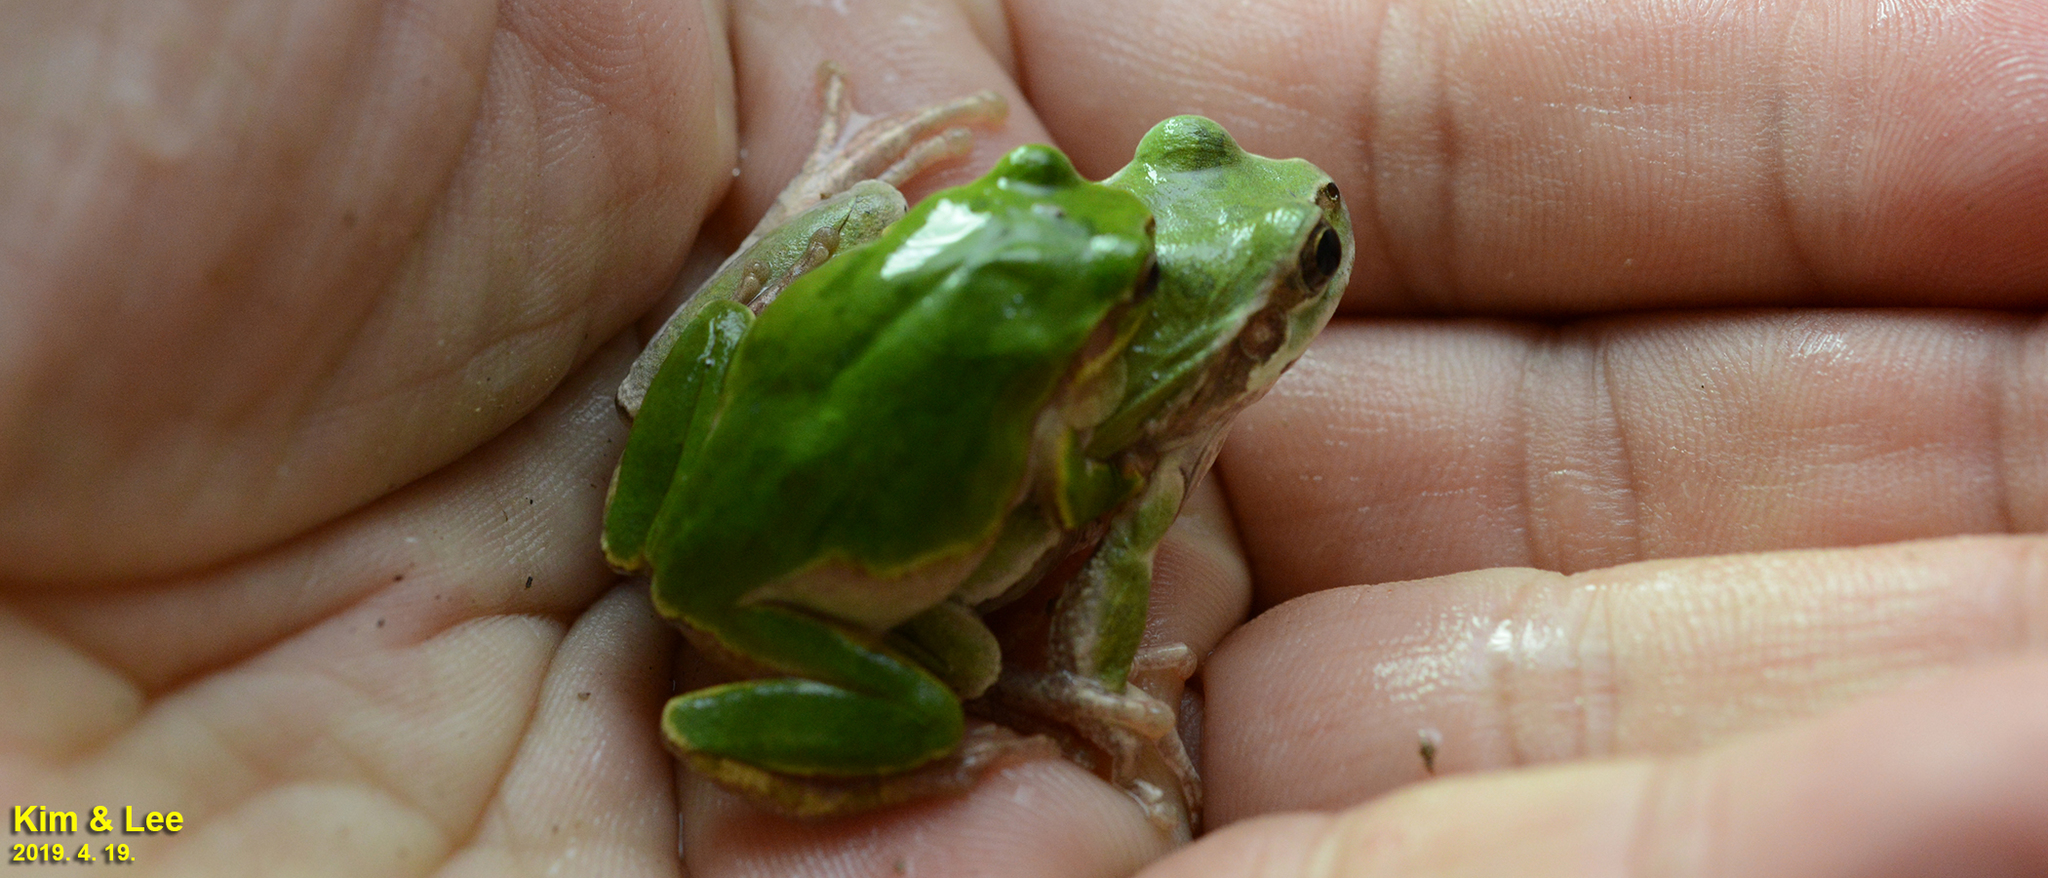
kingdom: Animalia
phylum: Chordata
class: Amphibia
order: Anura
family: Hylidae
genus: Dryophytes
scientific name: Dryophytes japonicus
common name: Japanese treefrog
